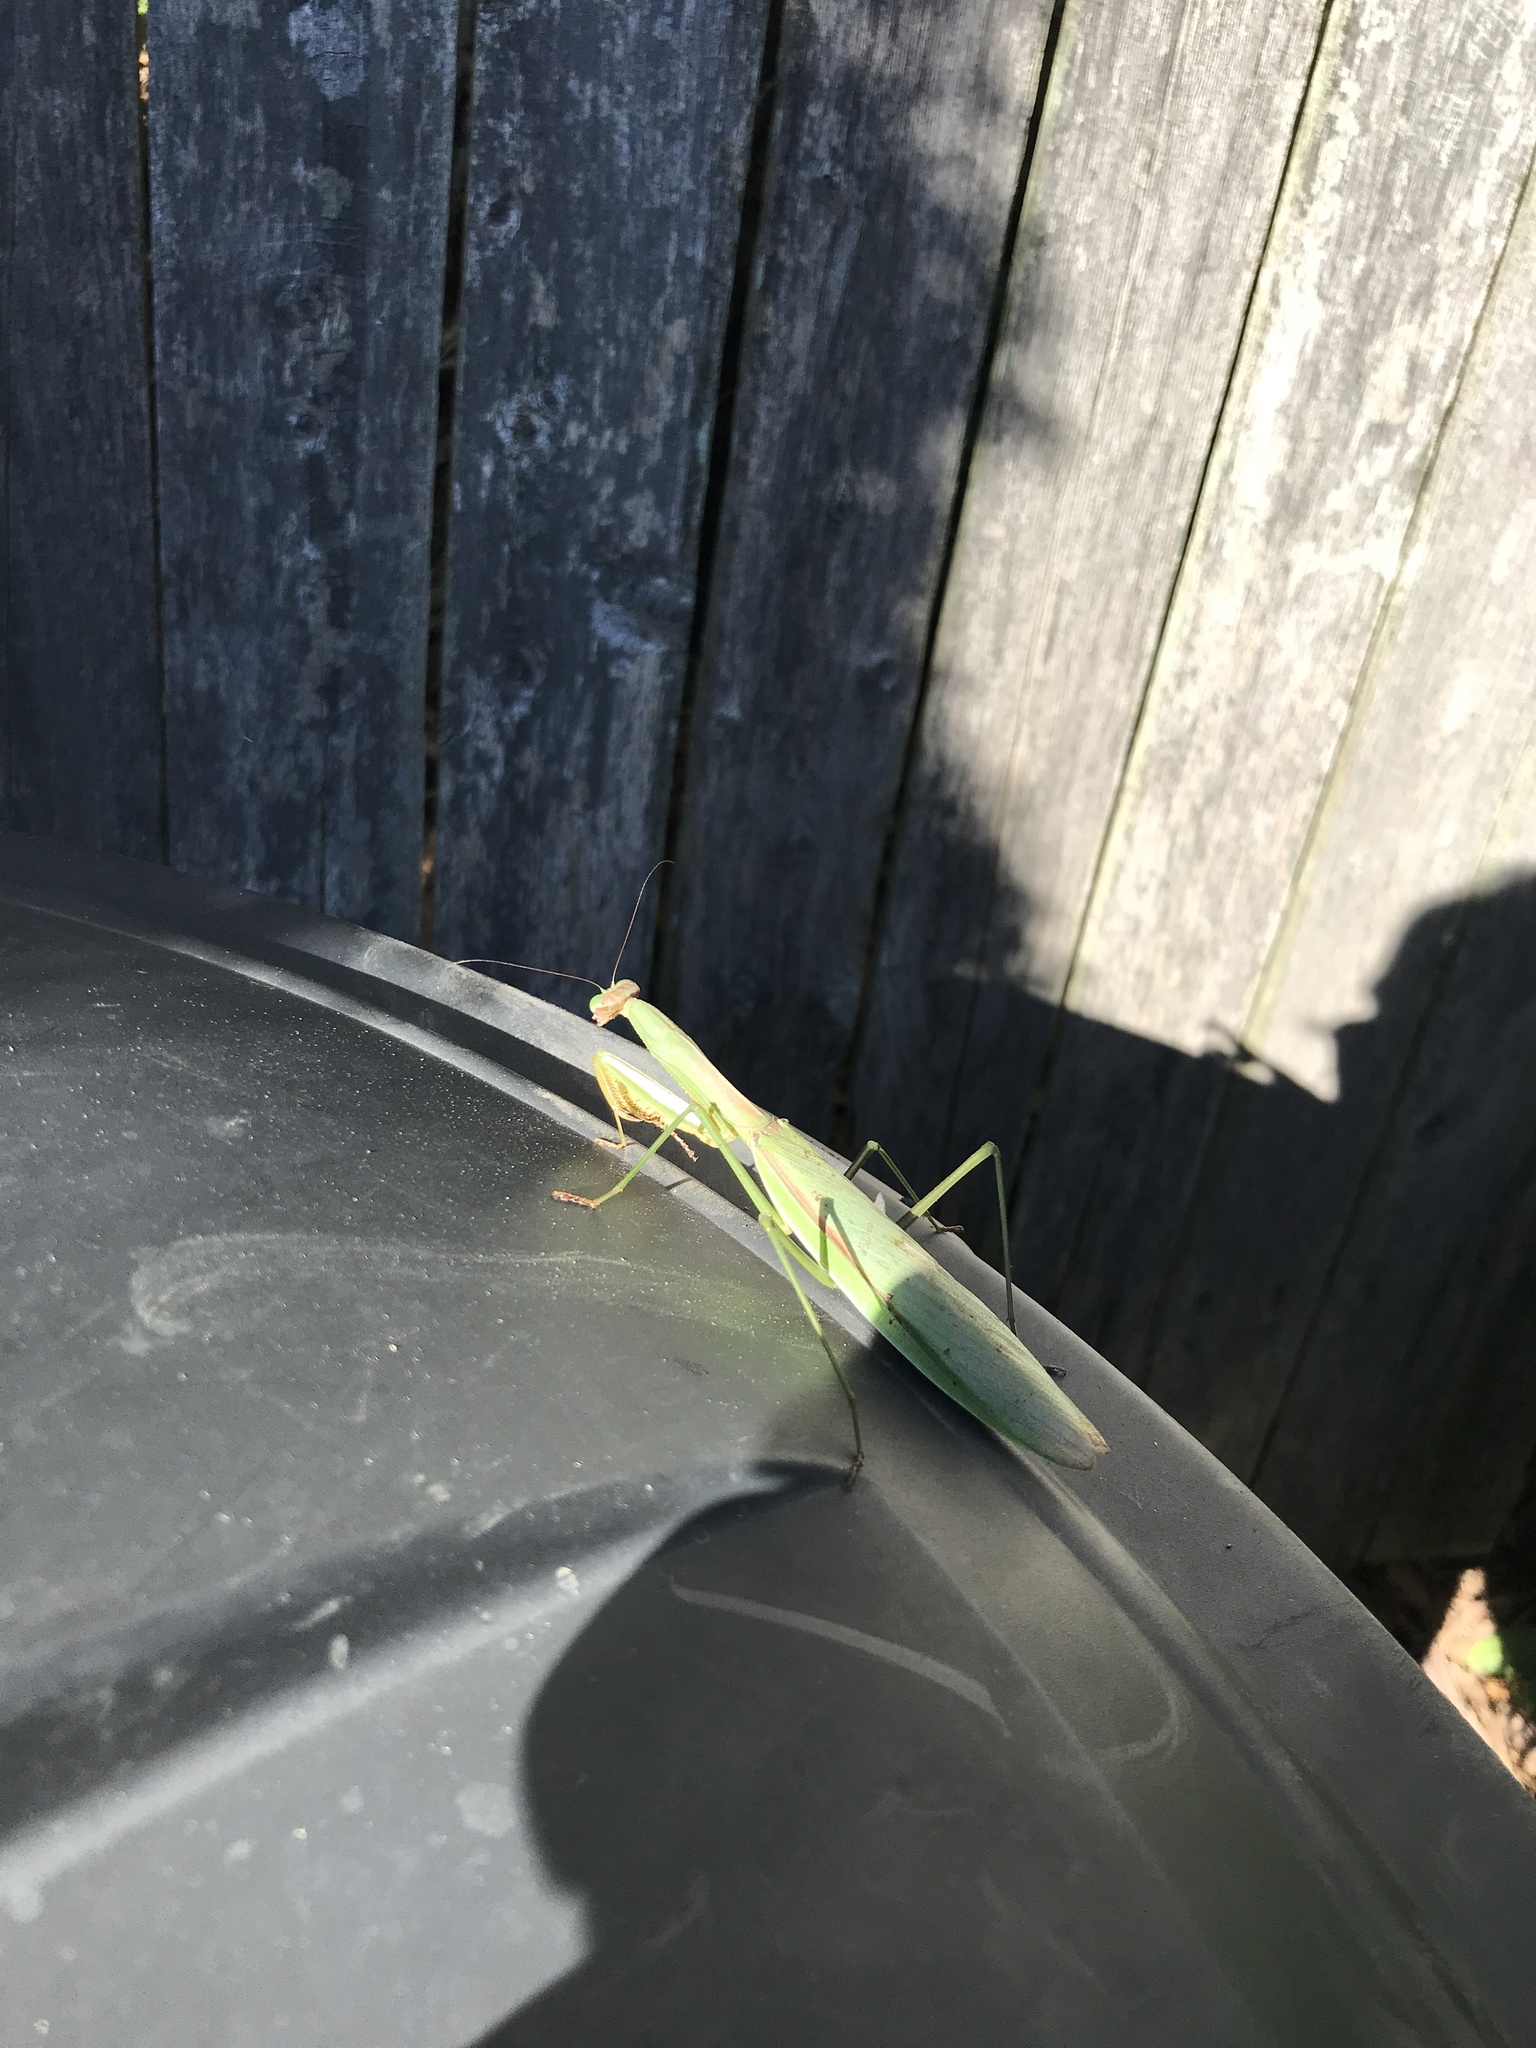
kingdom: Animalia
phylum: Arthropoda
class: Insecta
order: Mantodea
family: Mantidae
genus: Tenodera
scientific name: Tenodera sinensis
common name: Chinese mantis
